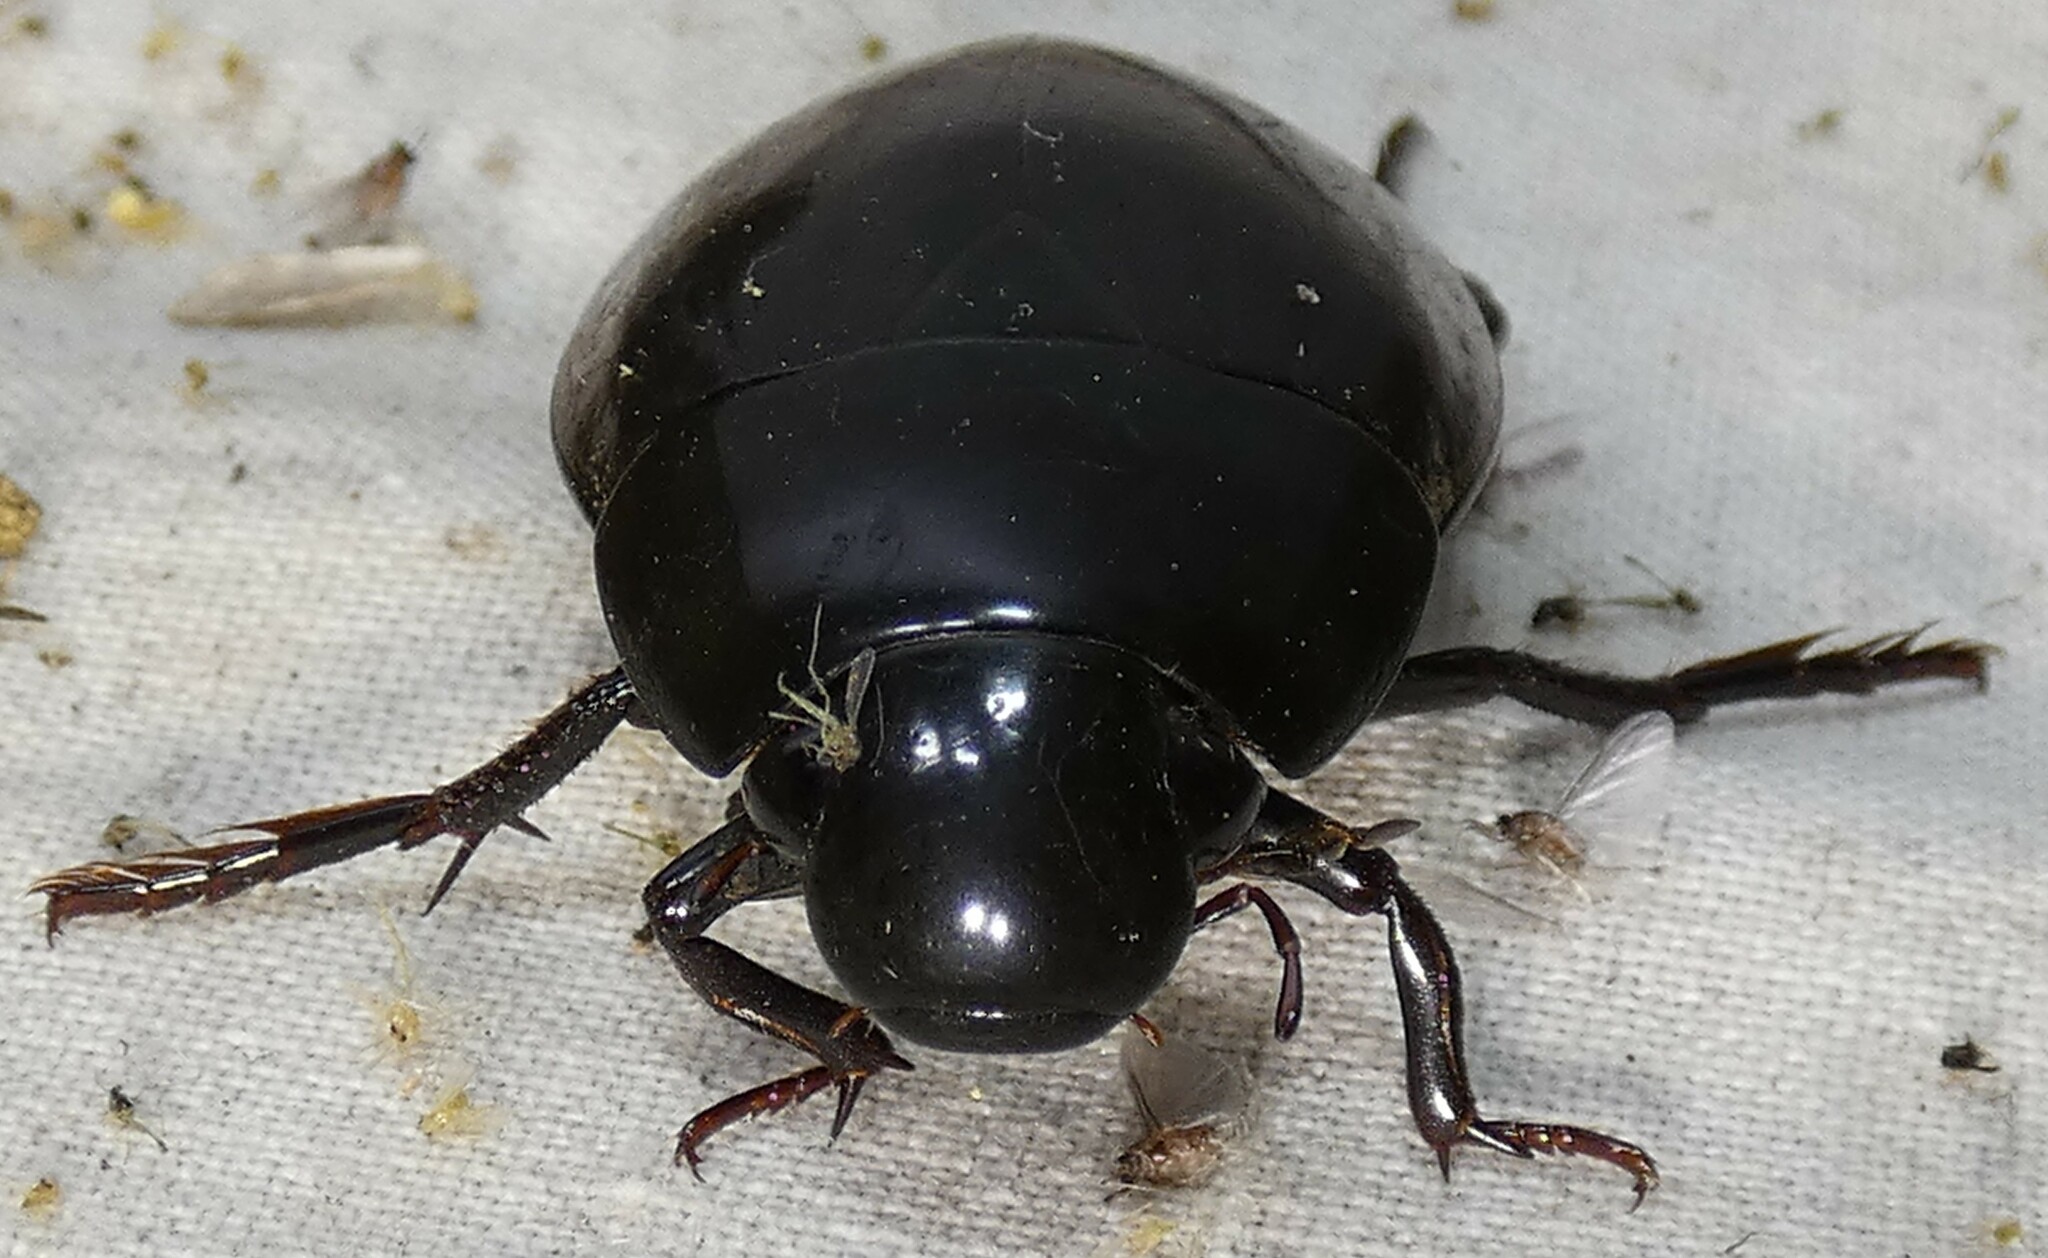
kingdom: Animalia
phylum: Arthropoda
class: Insecta
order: Coleoptera
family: Hydrophilidae
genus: Hydrophilus
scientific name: Hydrophilus ovatus
